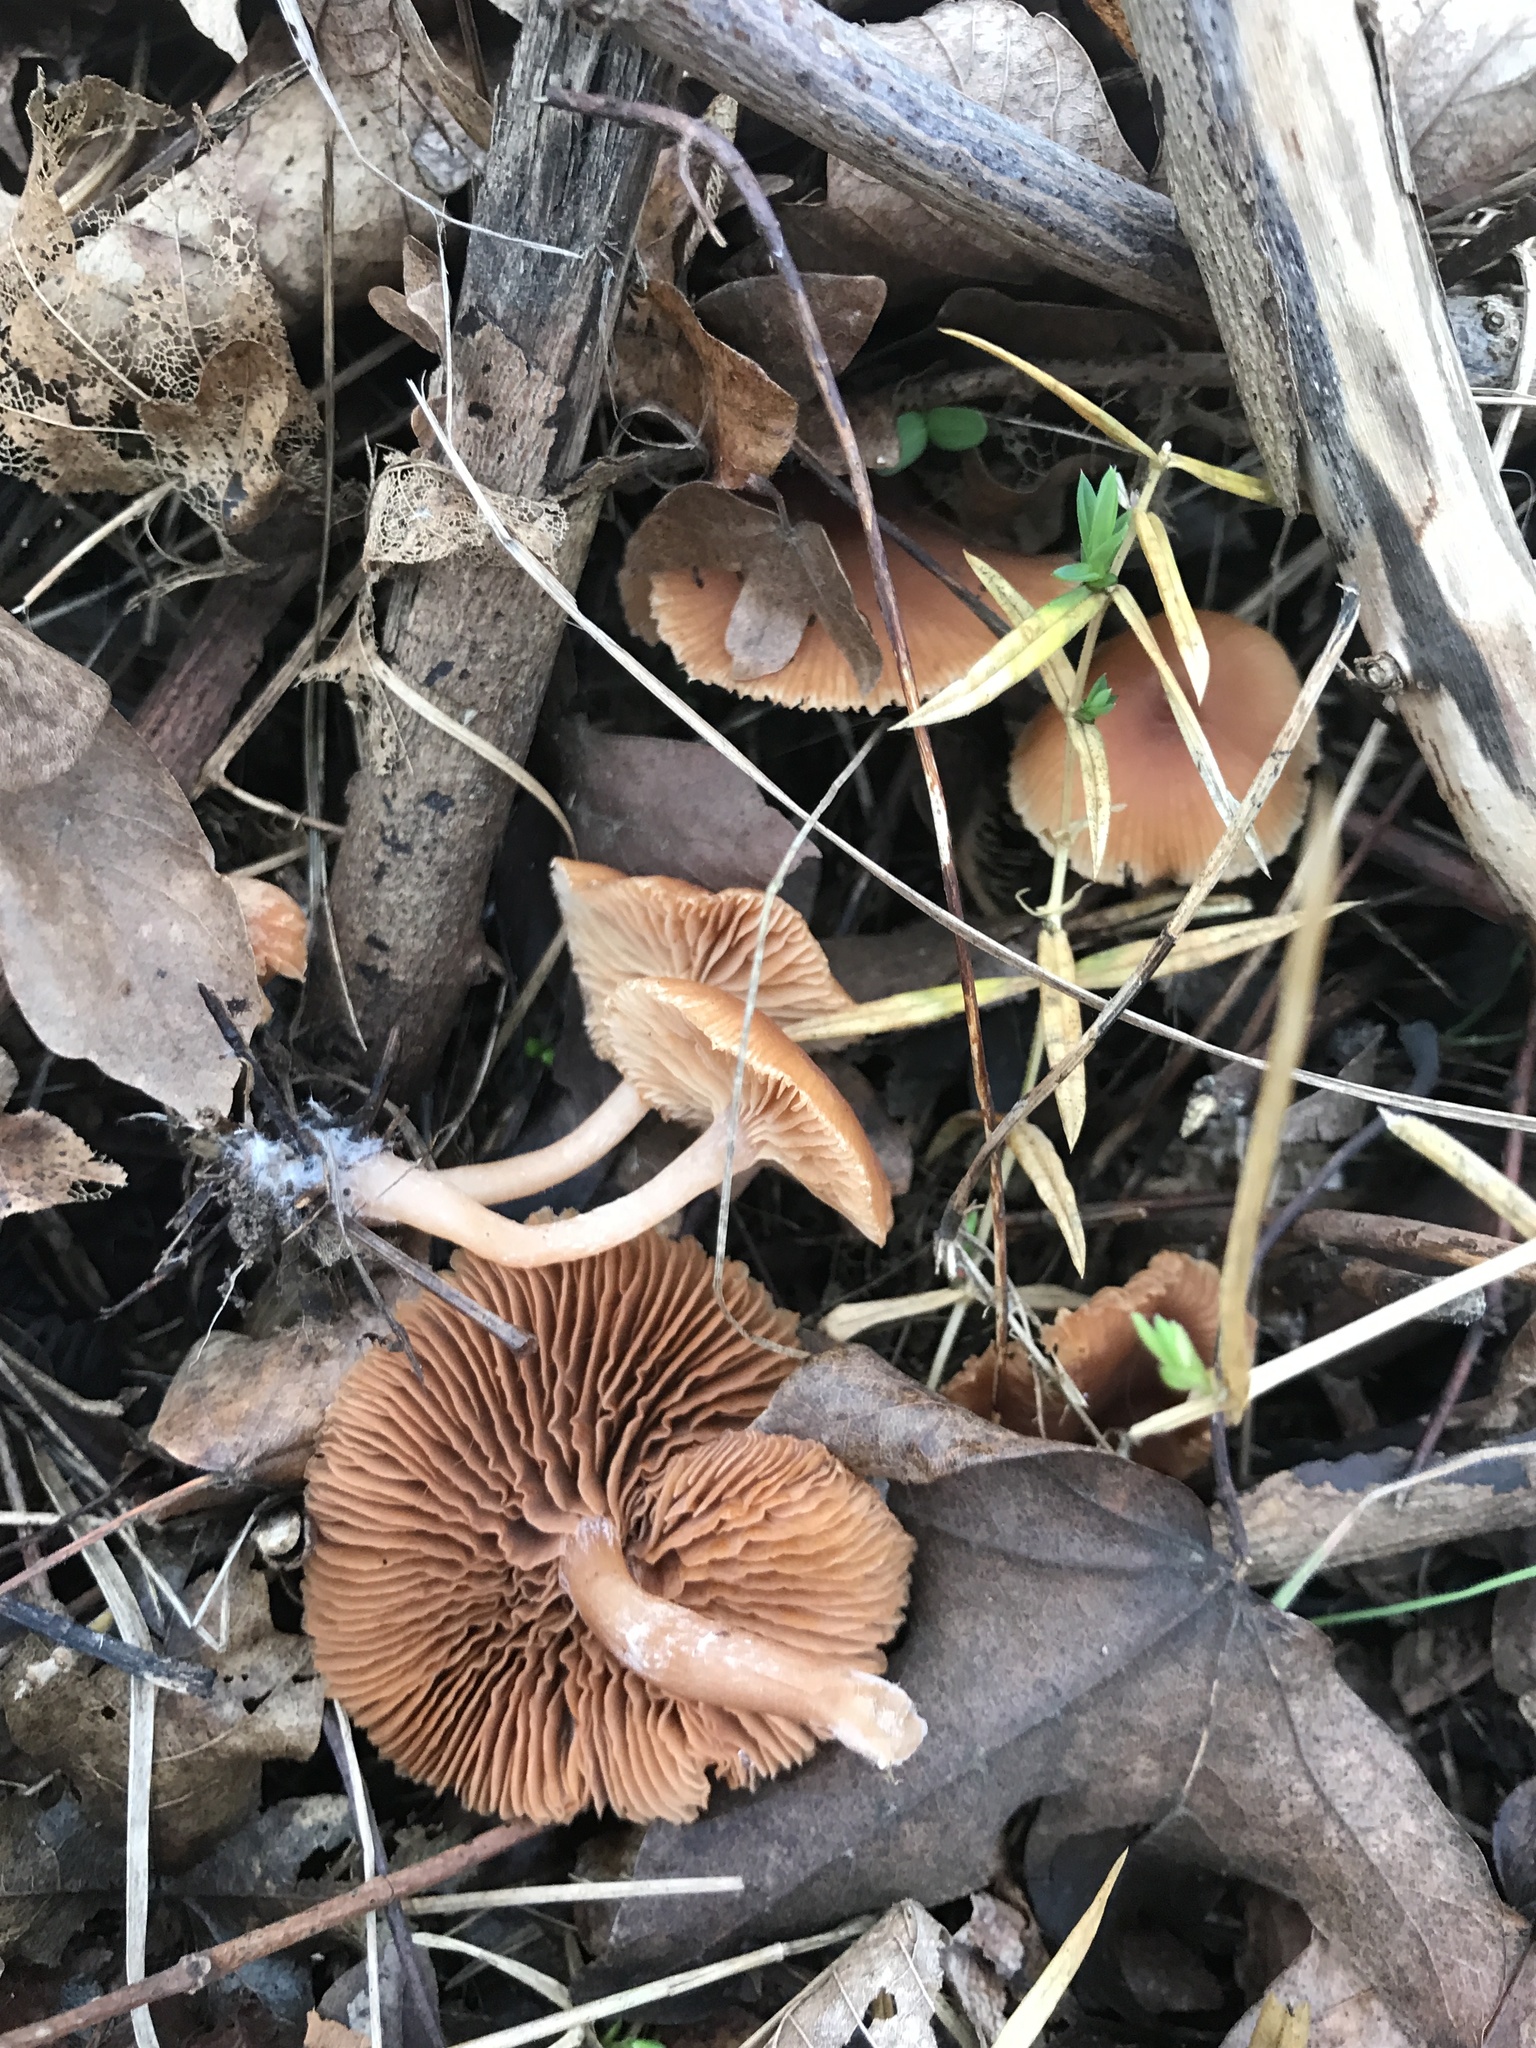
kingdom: Fungi
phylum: Basidiomycota
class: Agaricomycetes
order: Agaricales
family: Tubariaceae
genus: Tubaria
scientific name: Tubaria
